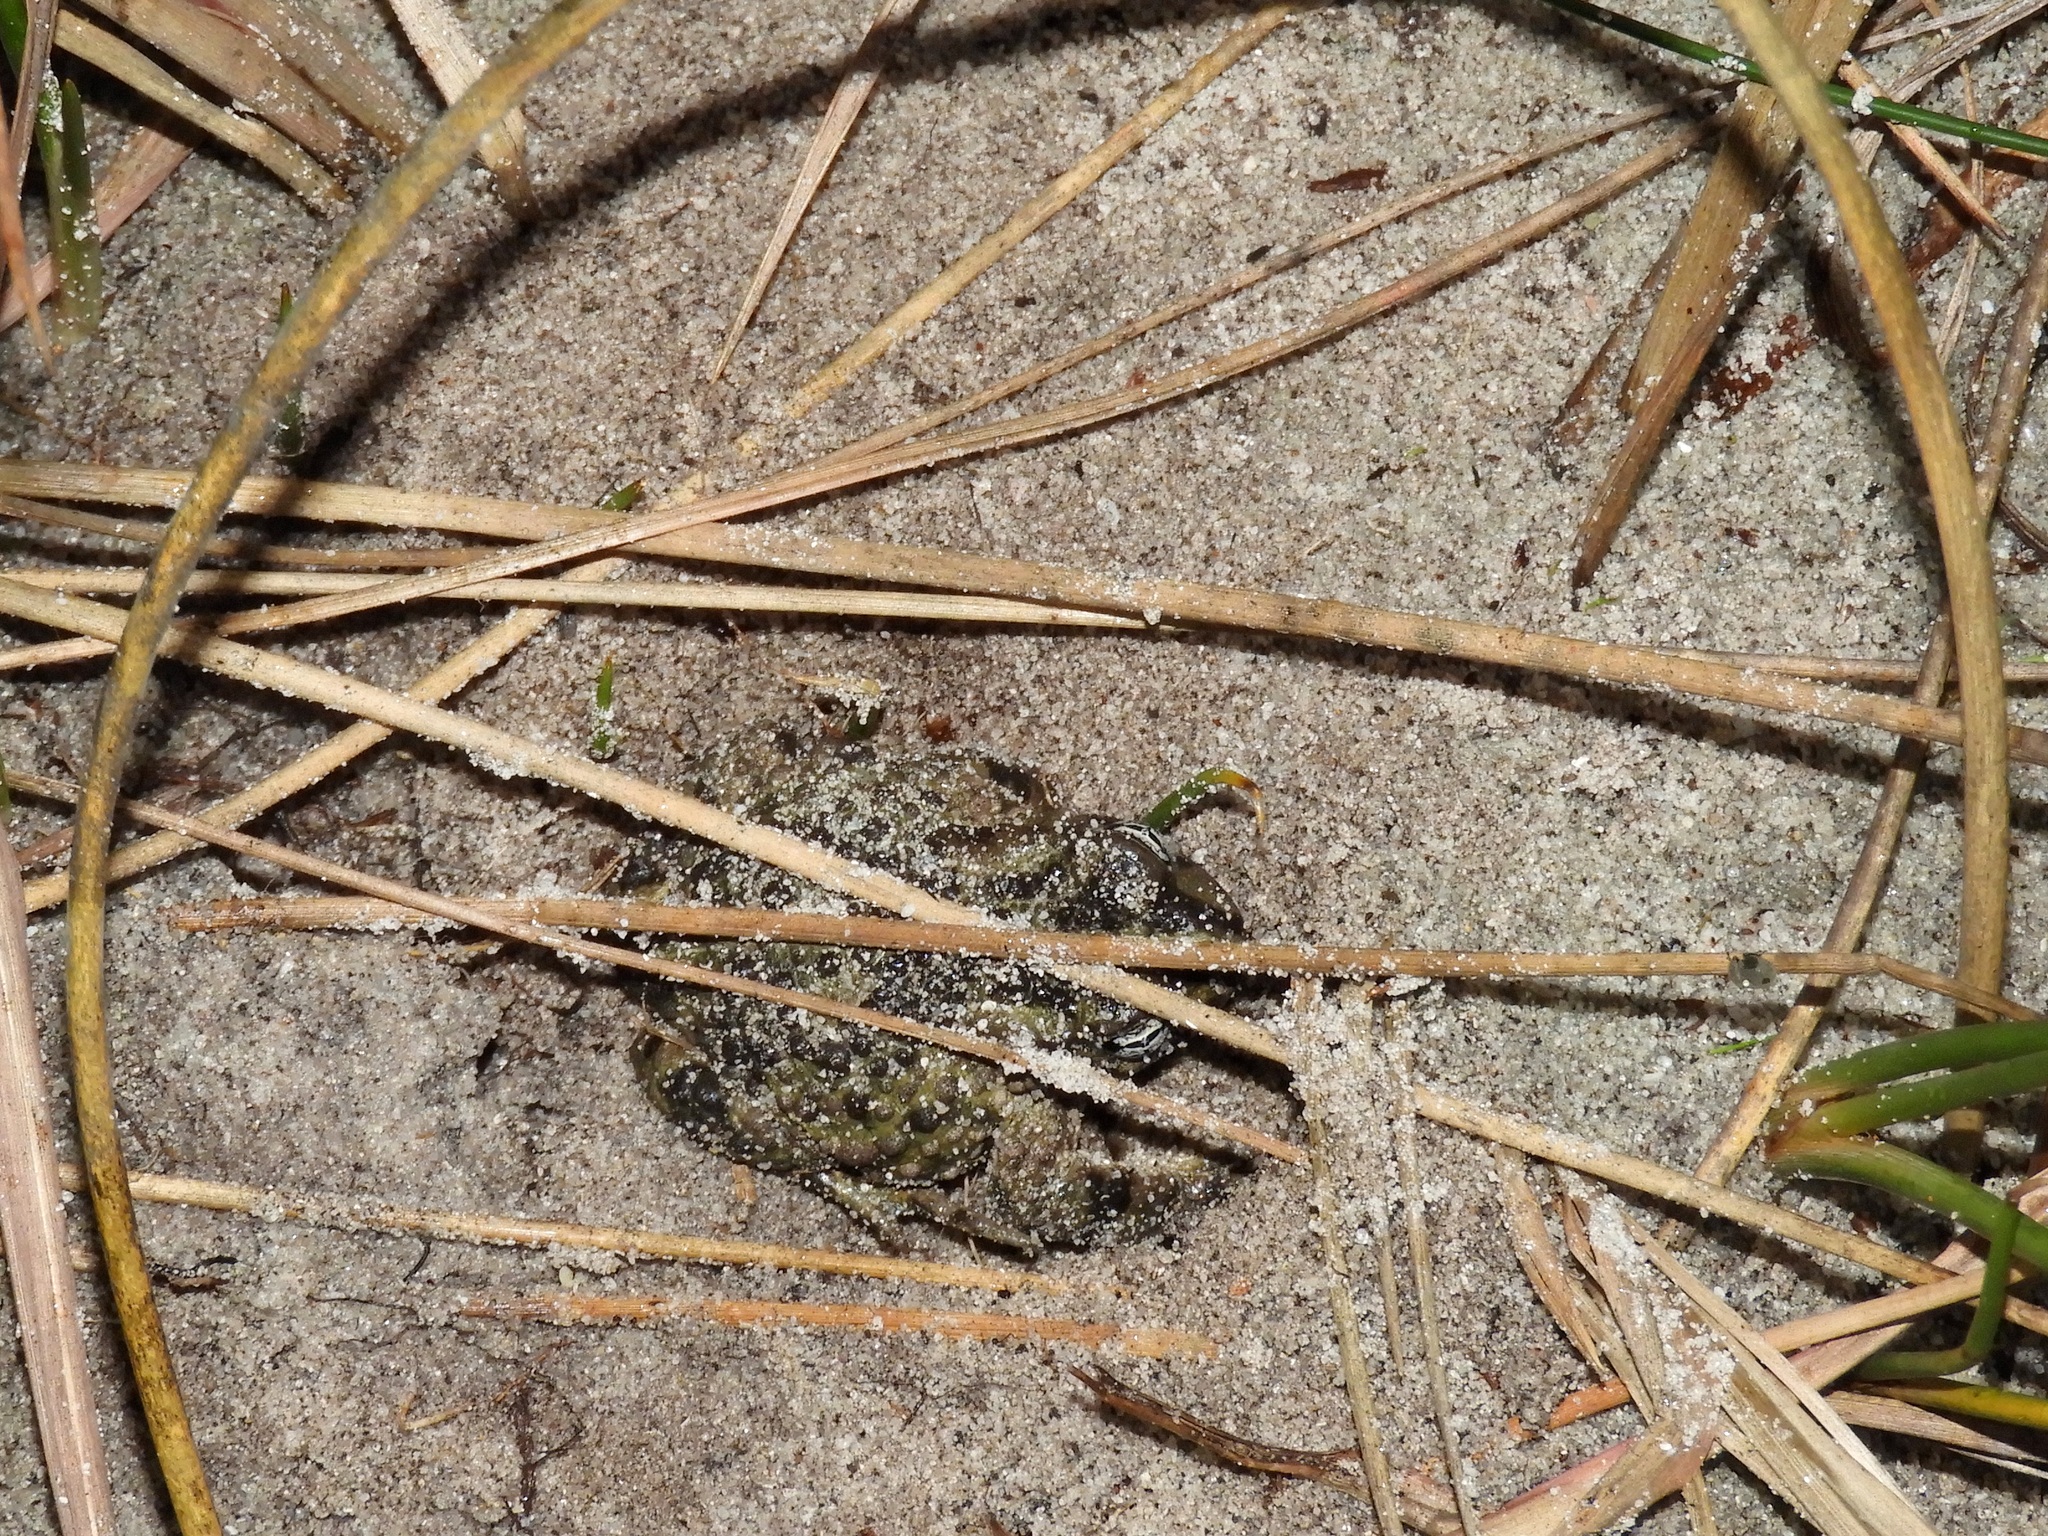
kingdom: Animalia
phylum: Chordata
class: Amphibia
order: Anura
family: Bufonidae
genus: Vandijkophrynus
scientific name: Vandijkophrynus angusticeps
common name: Sand toad
